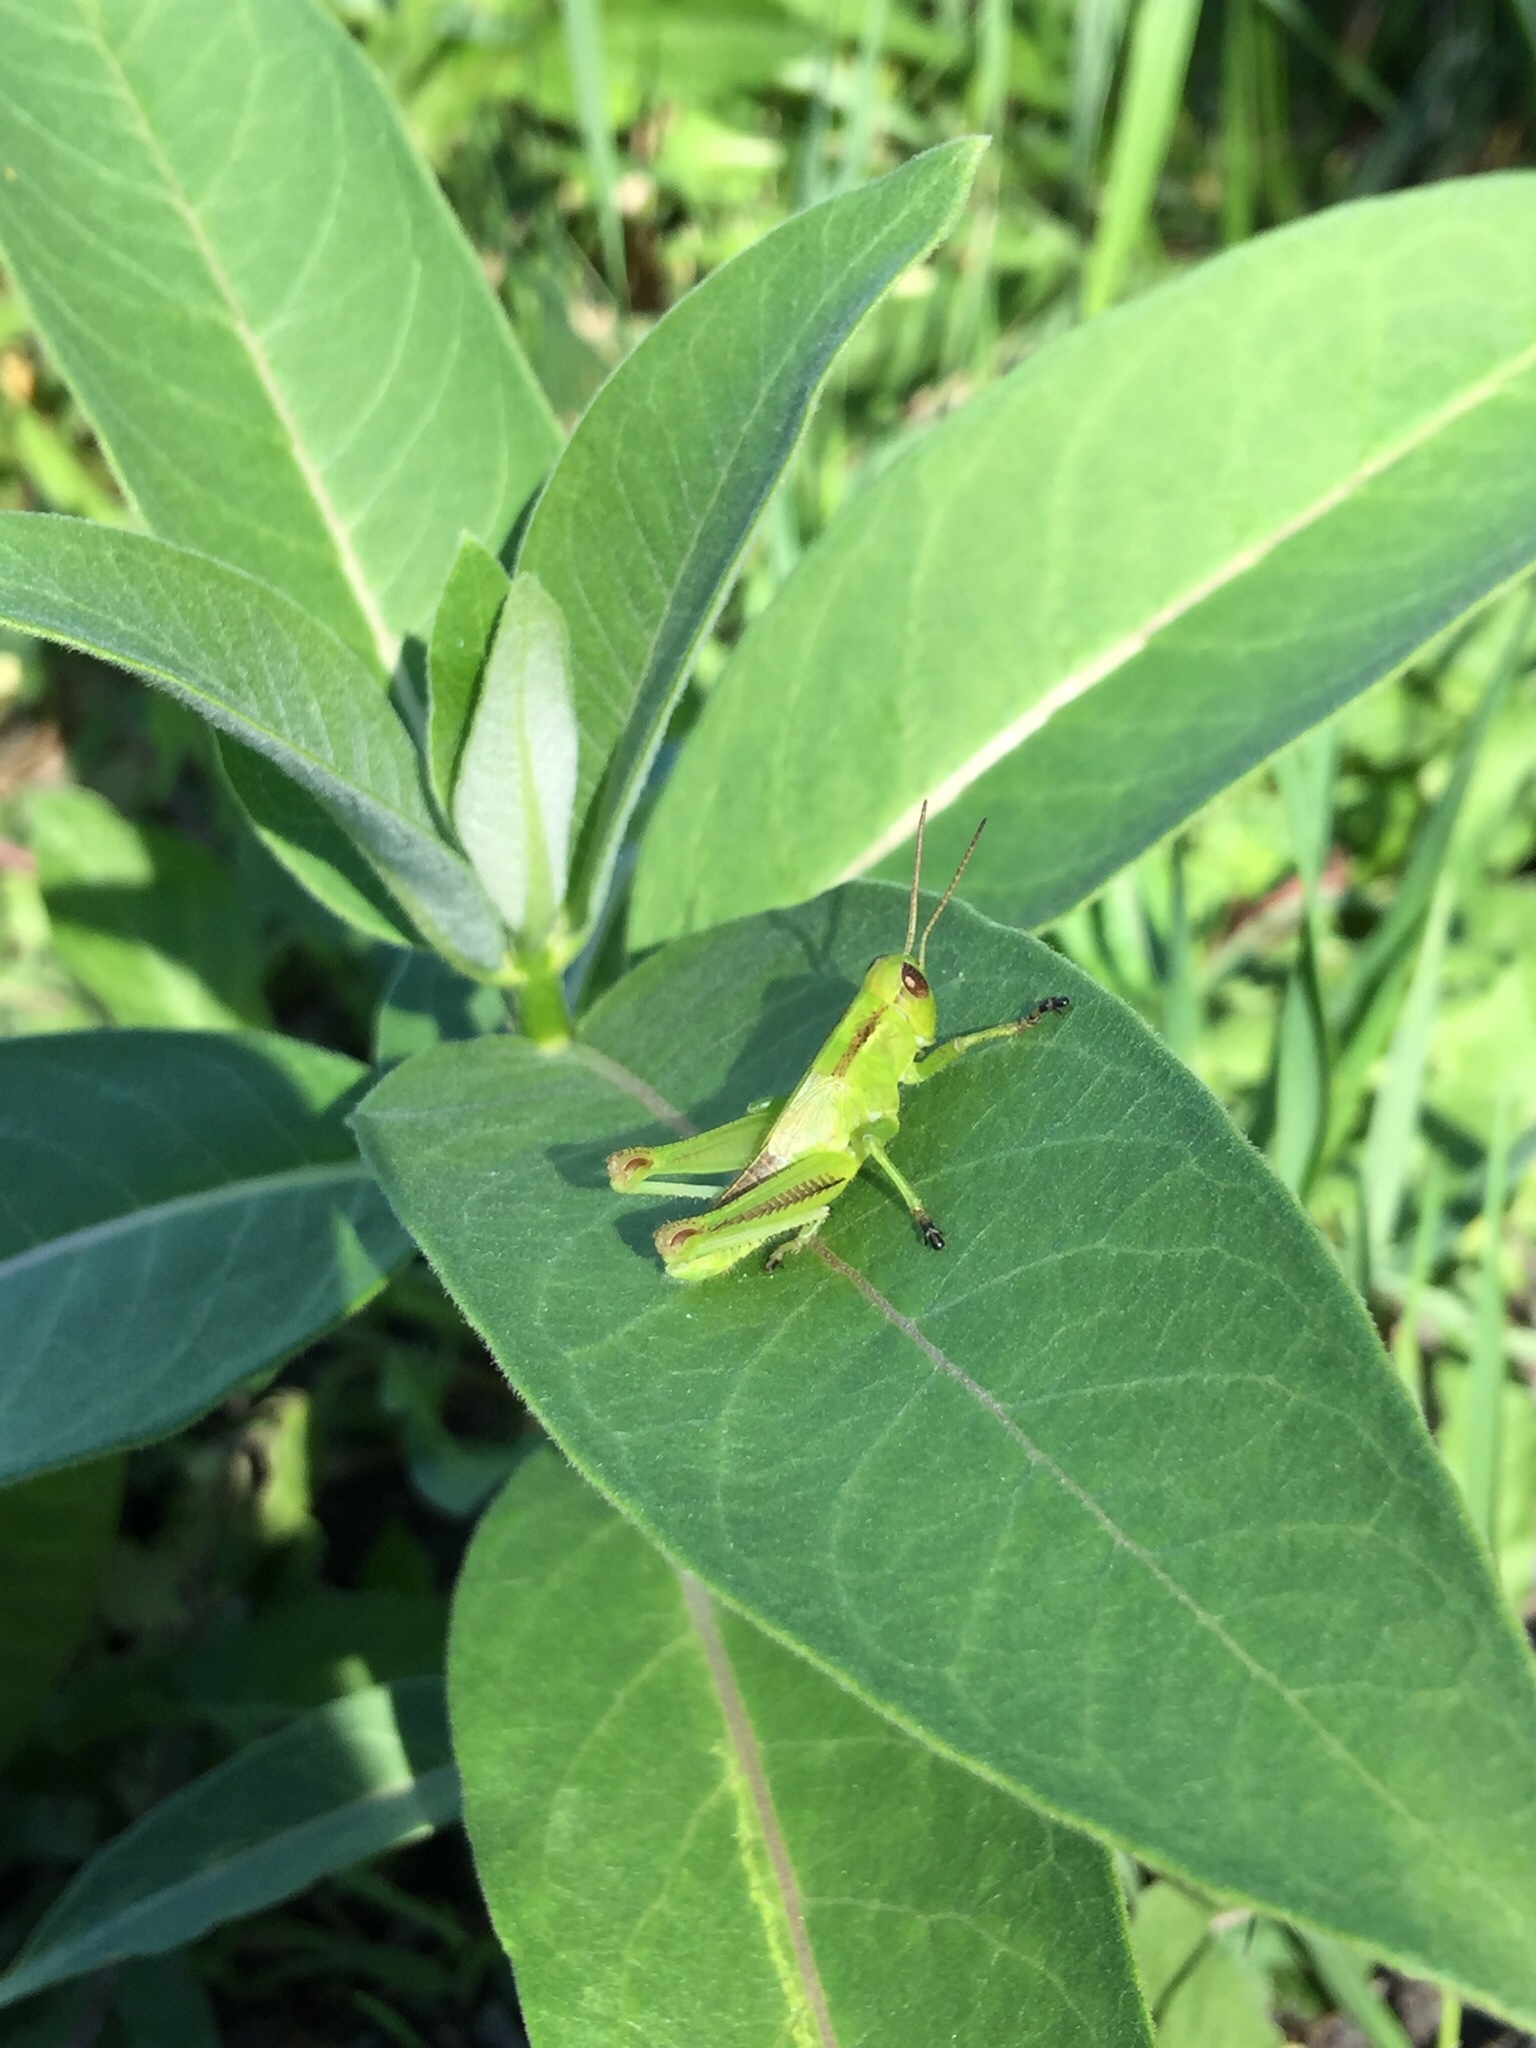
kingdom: Animalia
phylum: Arthropoda
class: Insecta
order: Orthoptera
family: Acrididae
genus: Melanoplus
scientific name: Melanoplus bivittatus
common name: Two-striped grasshopper
